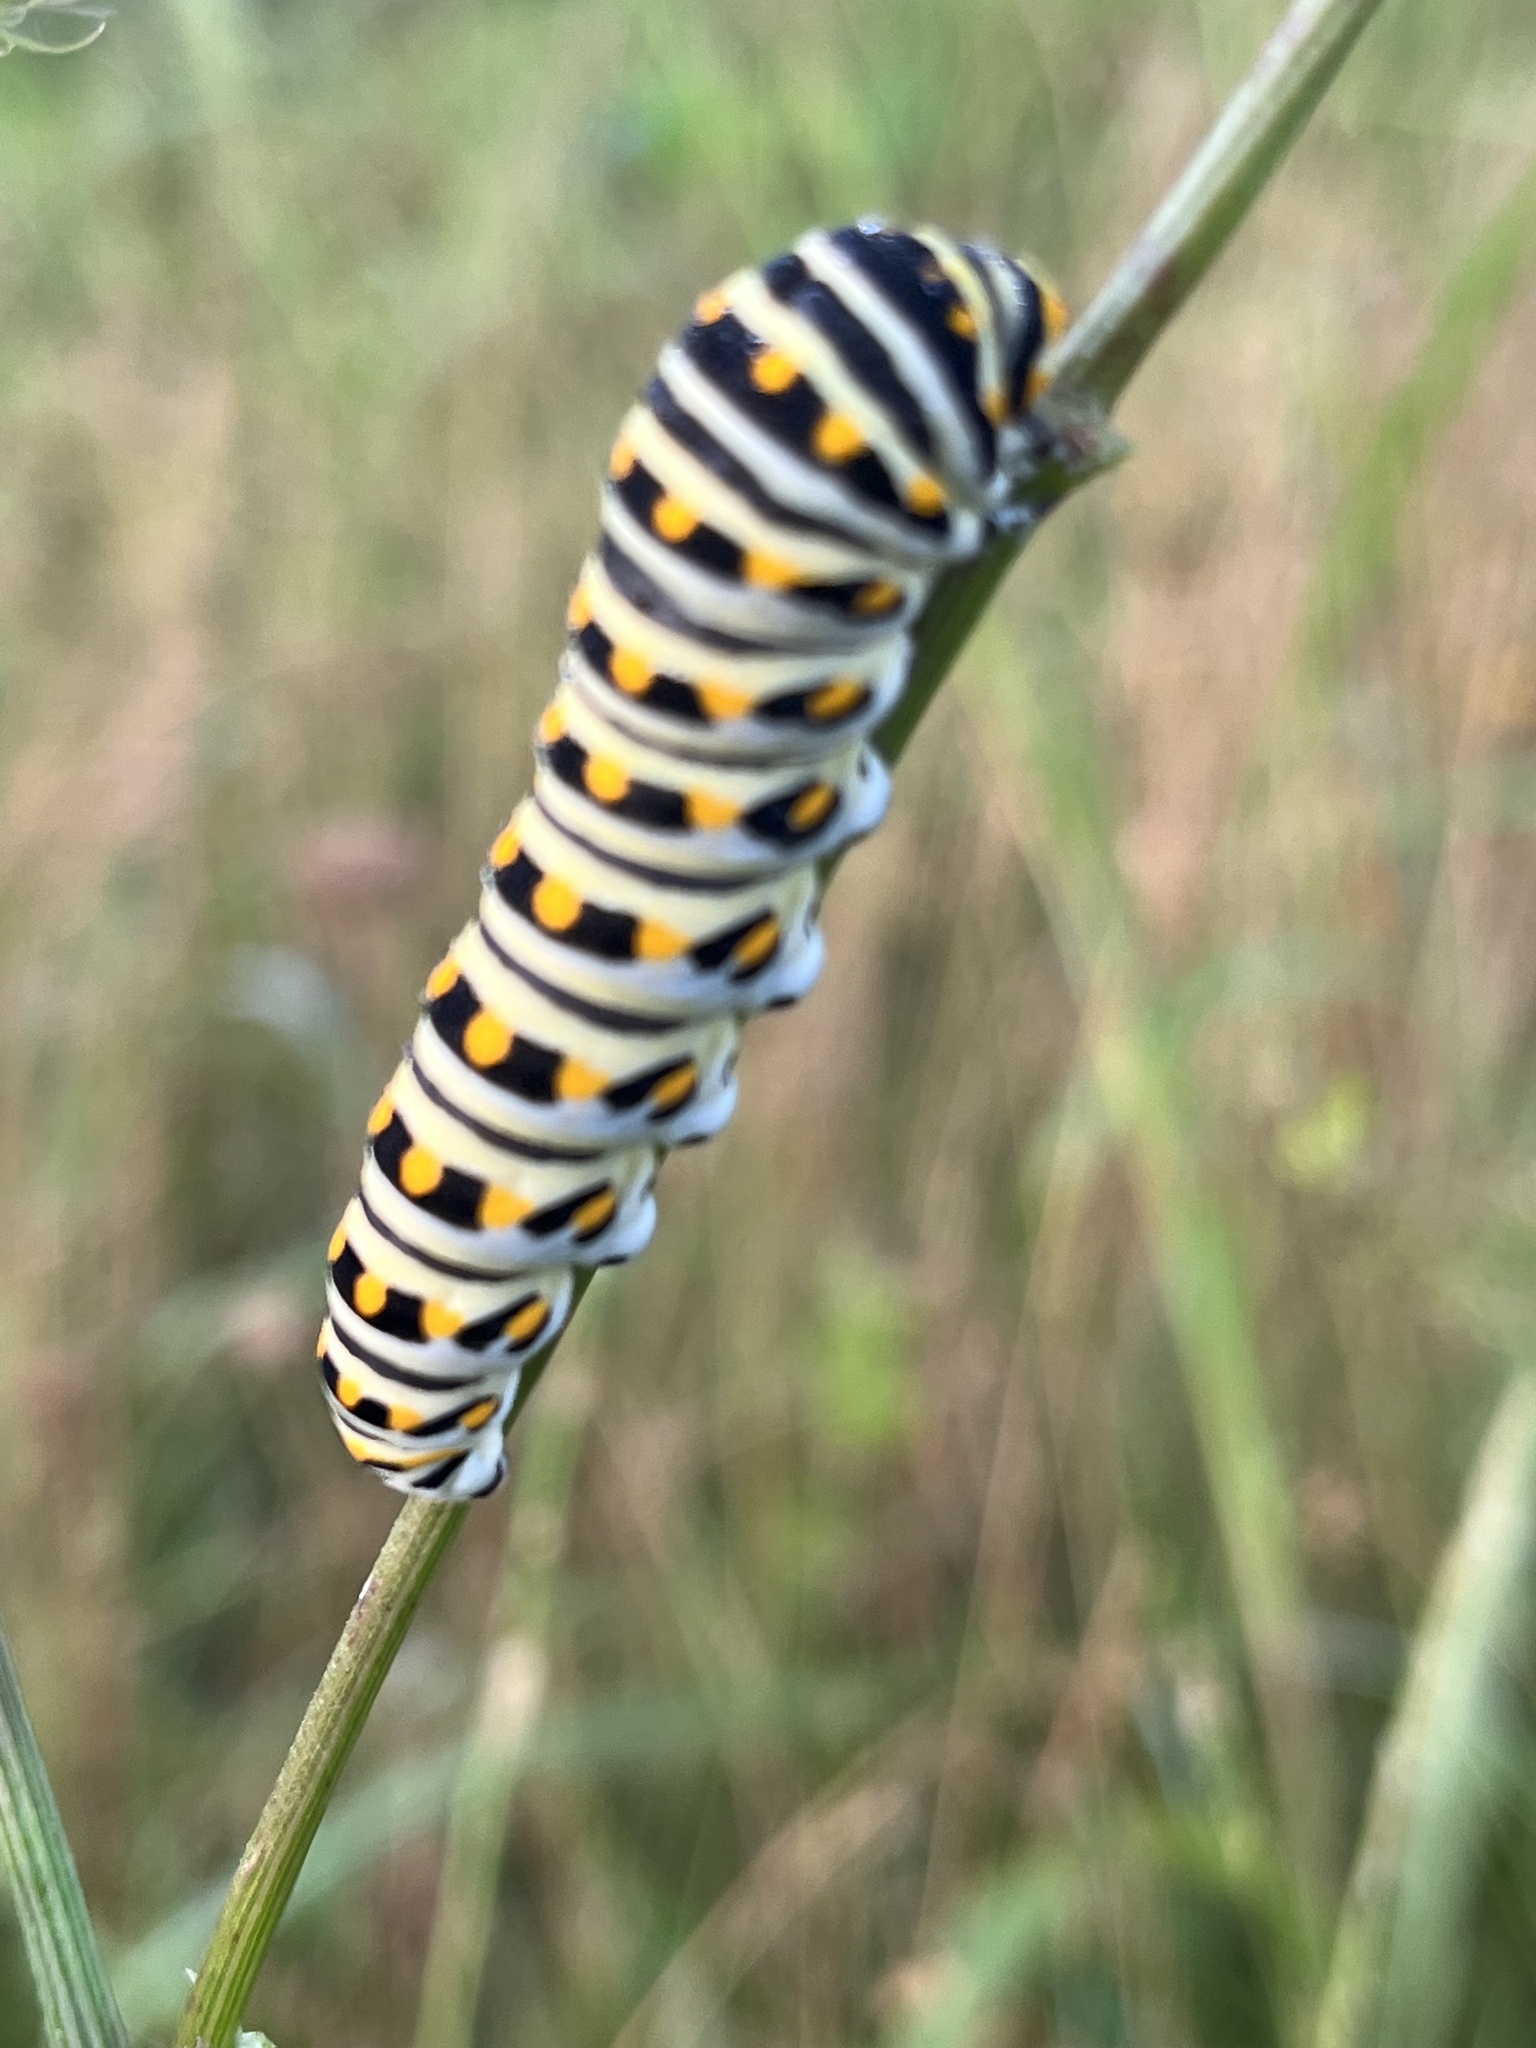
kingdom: Animalia
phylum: Arthropoda
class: Insecta
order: Lepidoptera
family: Papilionidae
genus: Papilio
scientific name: Papilio polyxenes
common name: Black swallowtail
